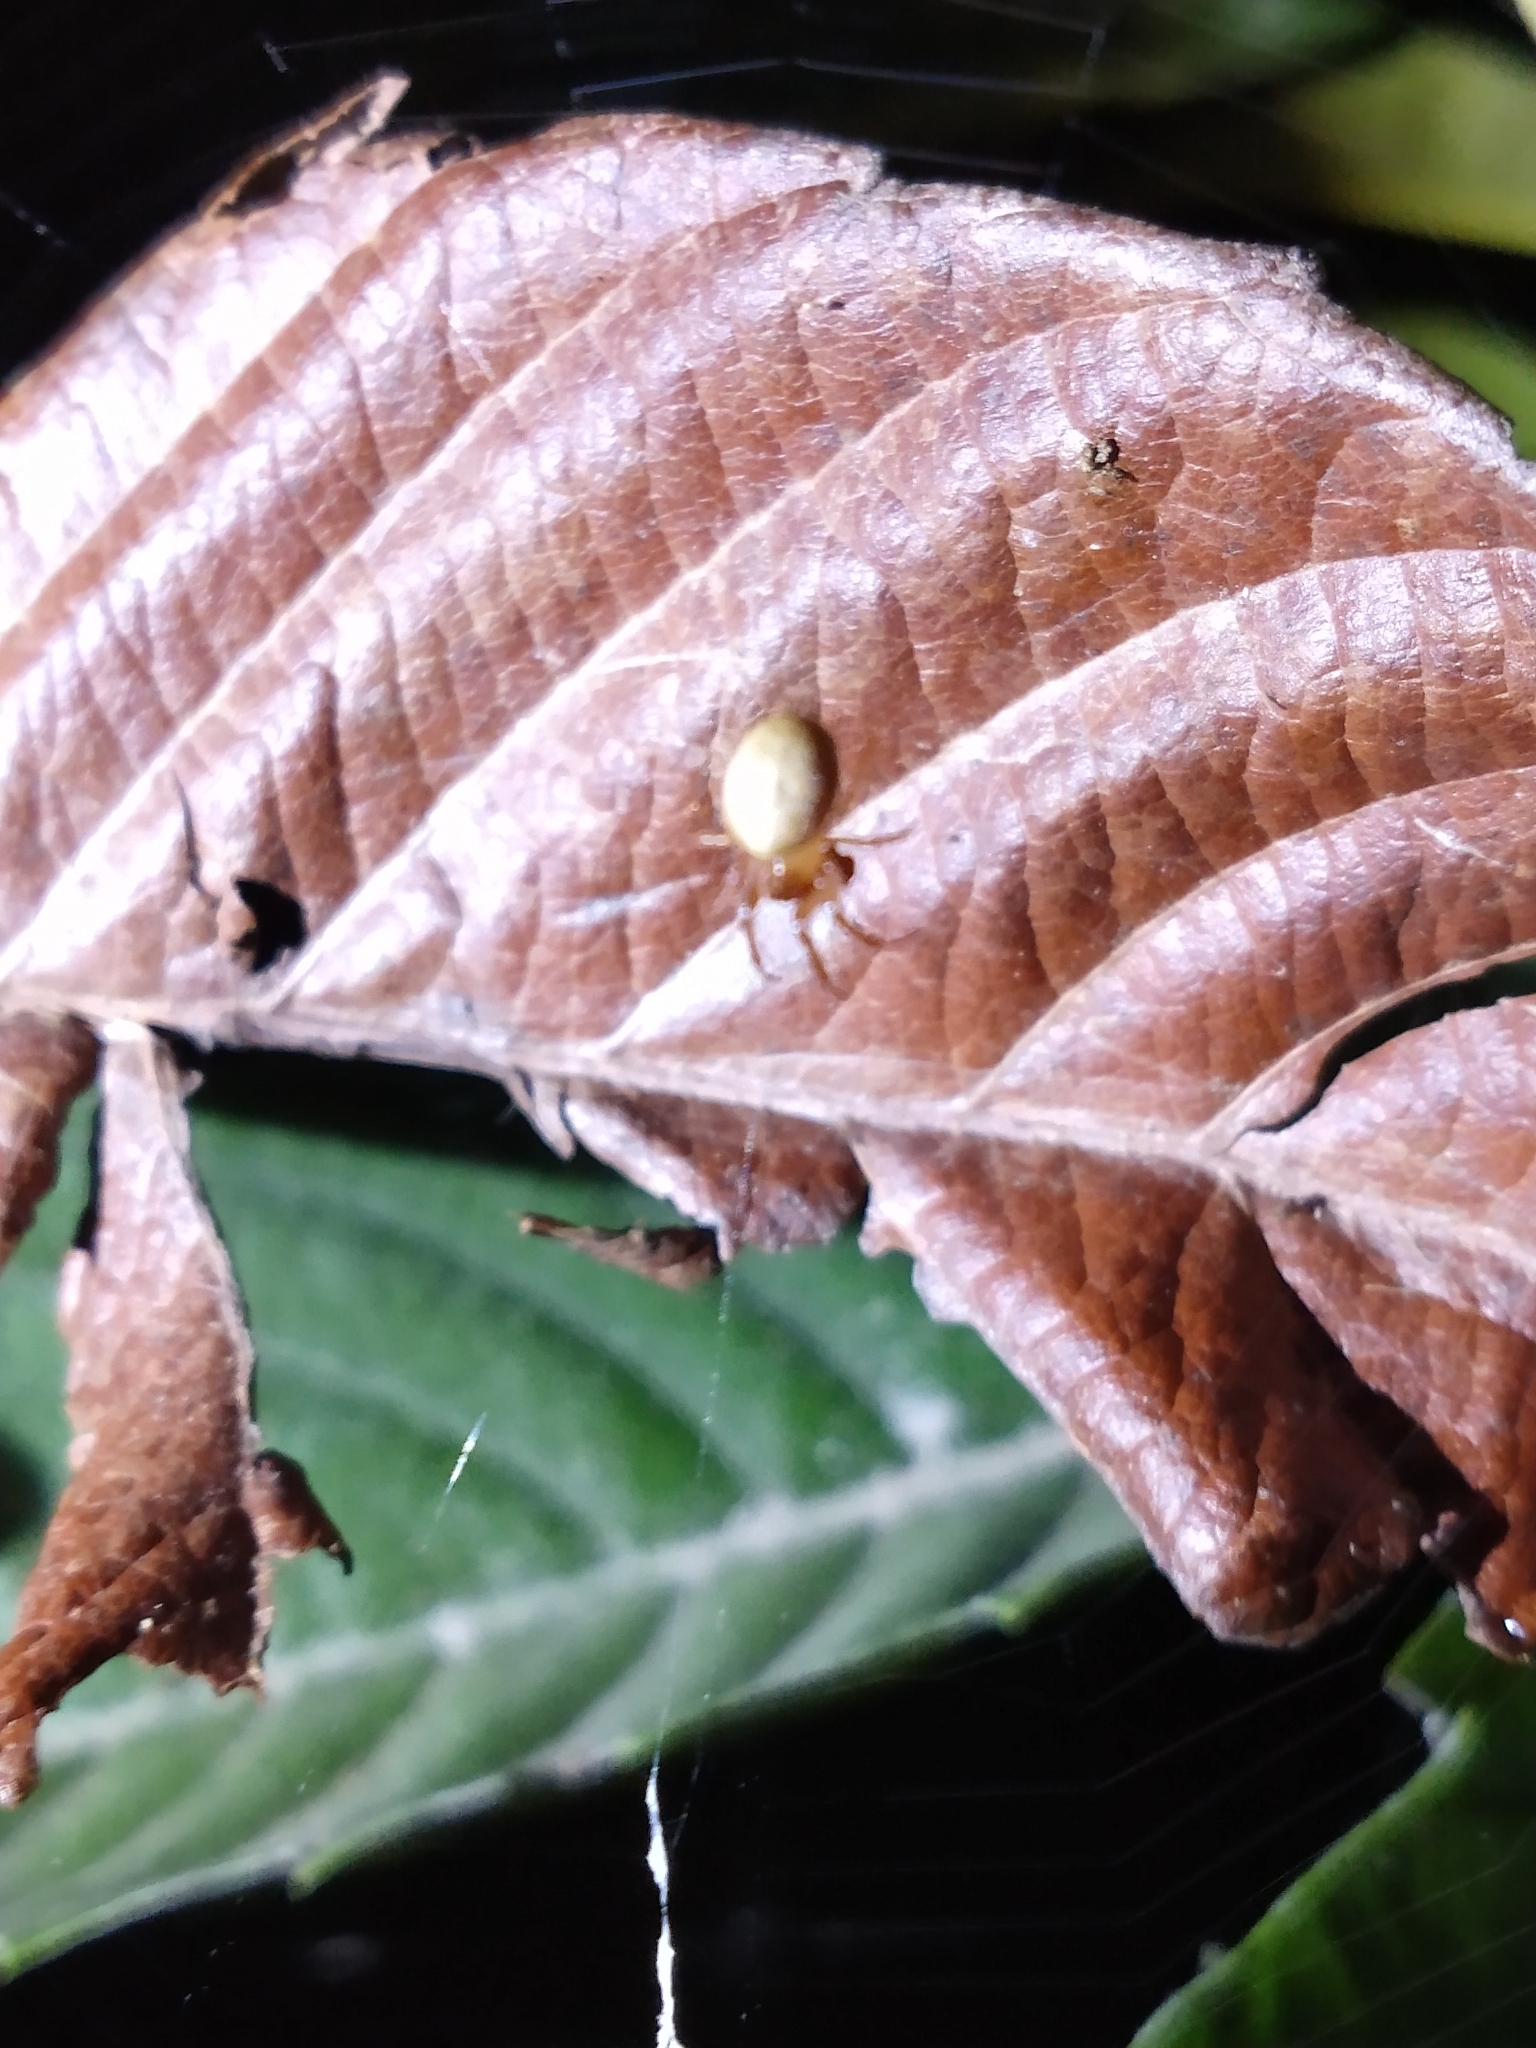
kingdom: Animalia
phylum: Arthropoda
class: Arachnida
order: Araneae
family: Araneidae
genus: Metazygia
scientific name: Metazygia
